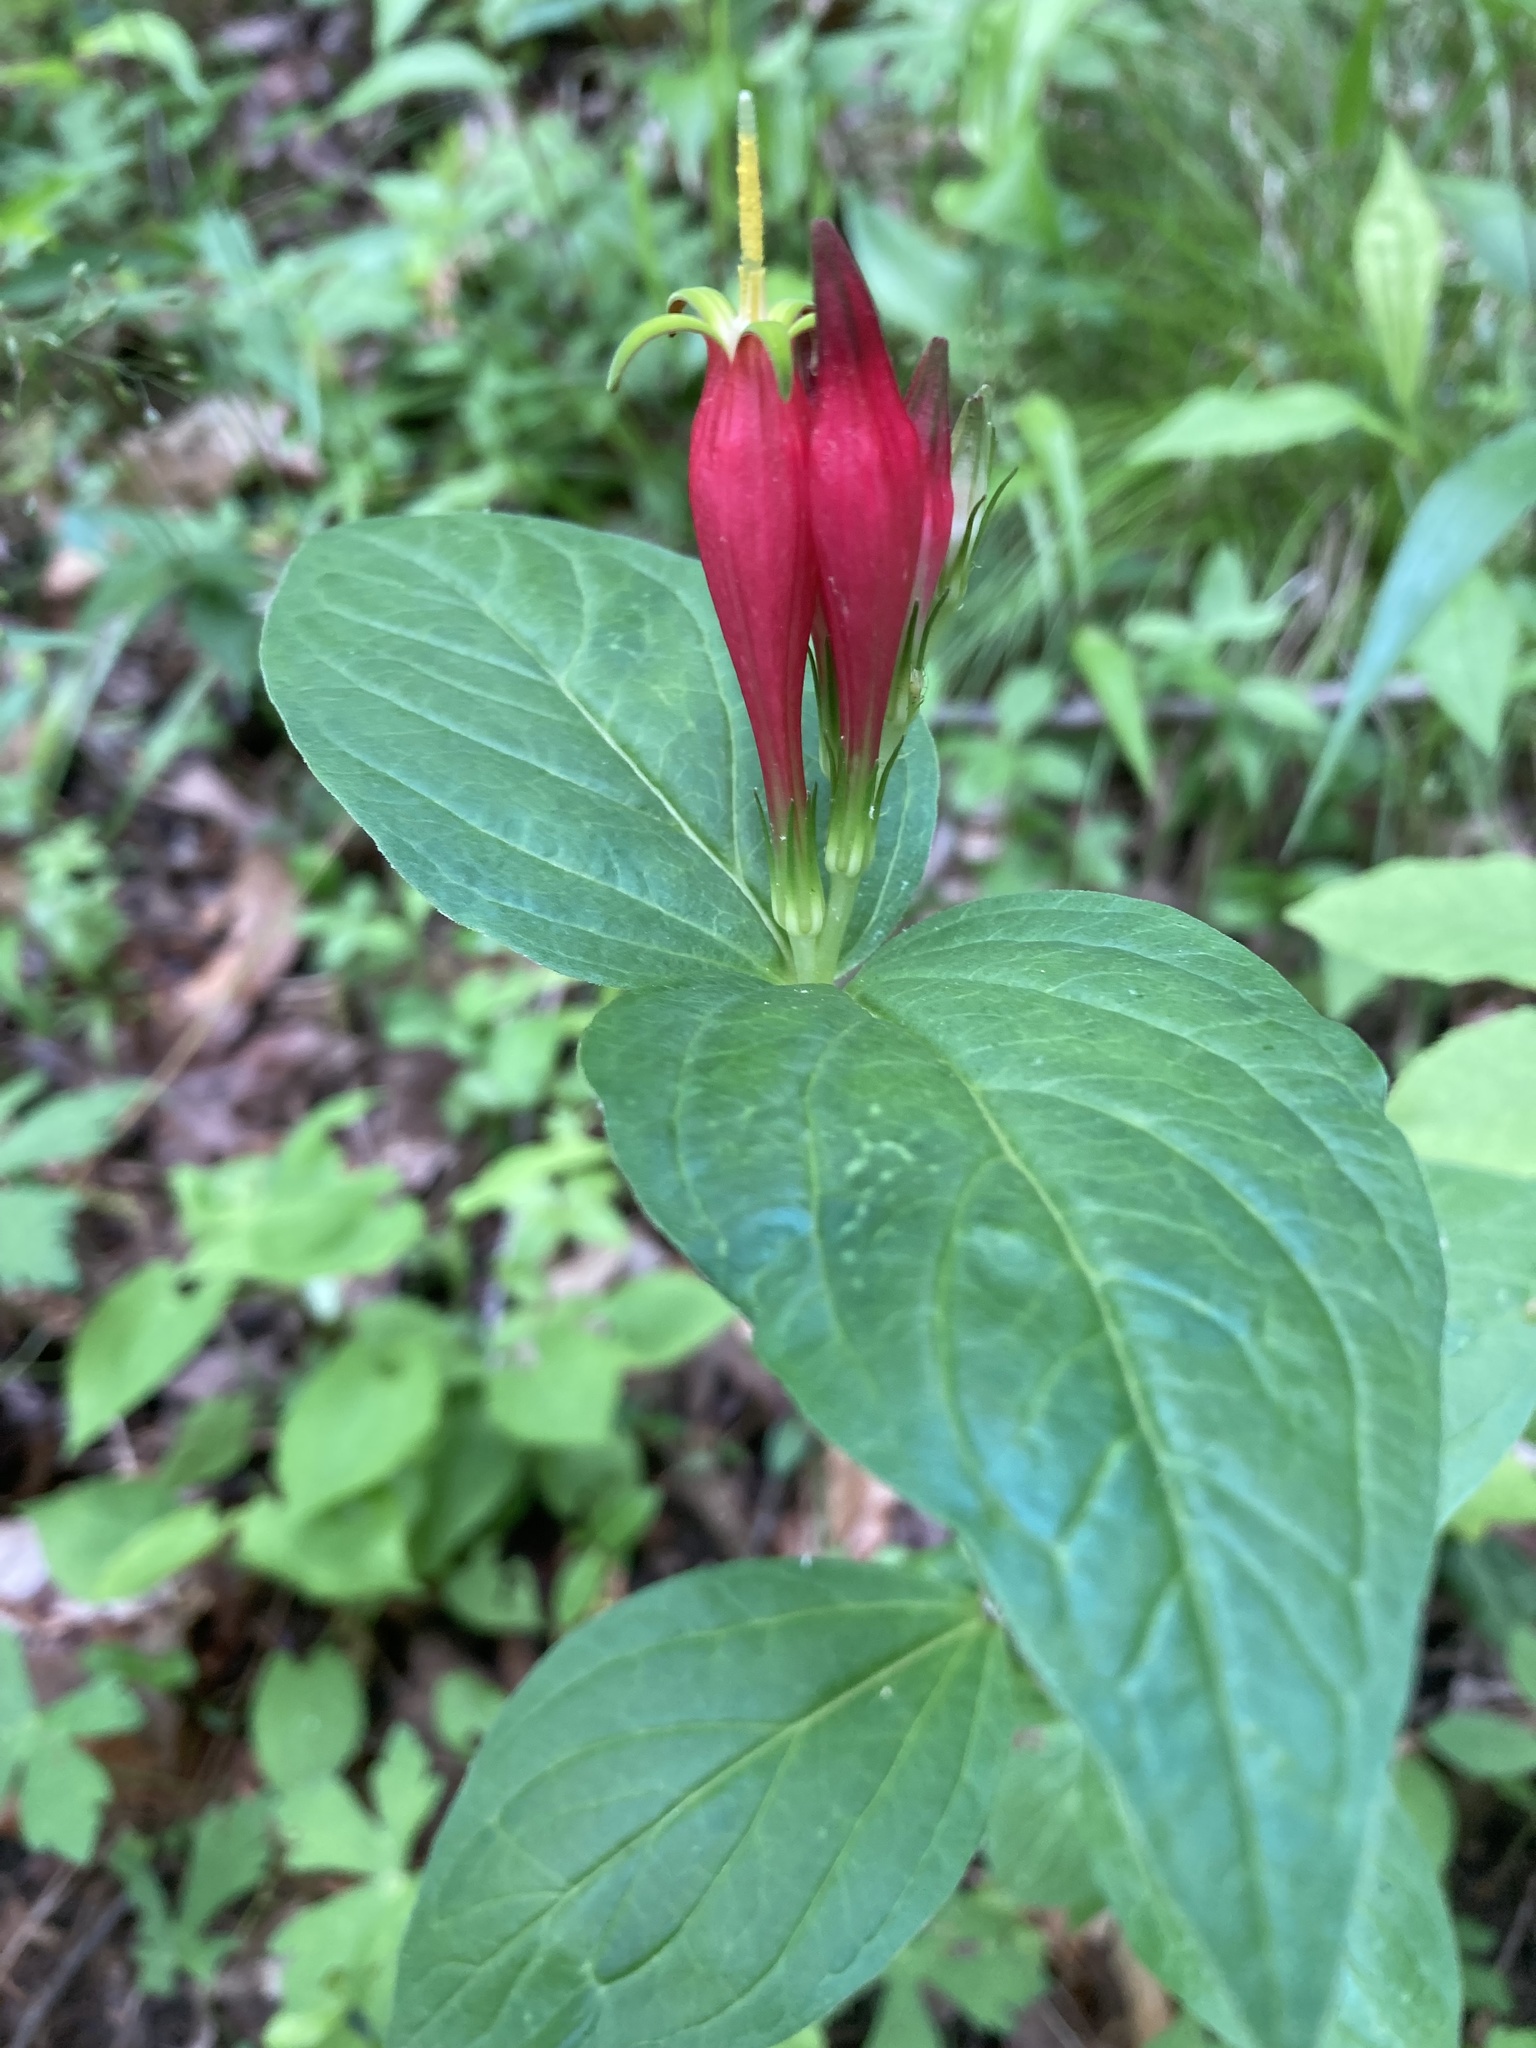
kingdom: Plantae
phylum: Tracheophyta
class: Magnoliopsida
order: Gentianales
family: Loganiaceae
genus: Spigelia
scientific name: Spigelia marilandica
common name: Indian-pink
